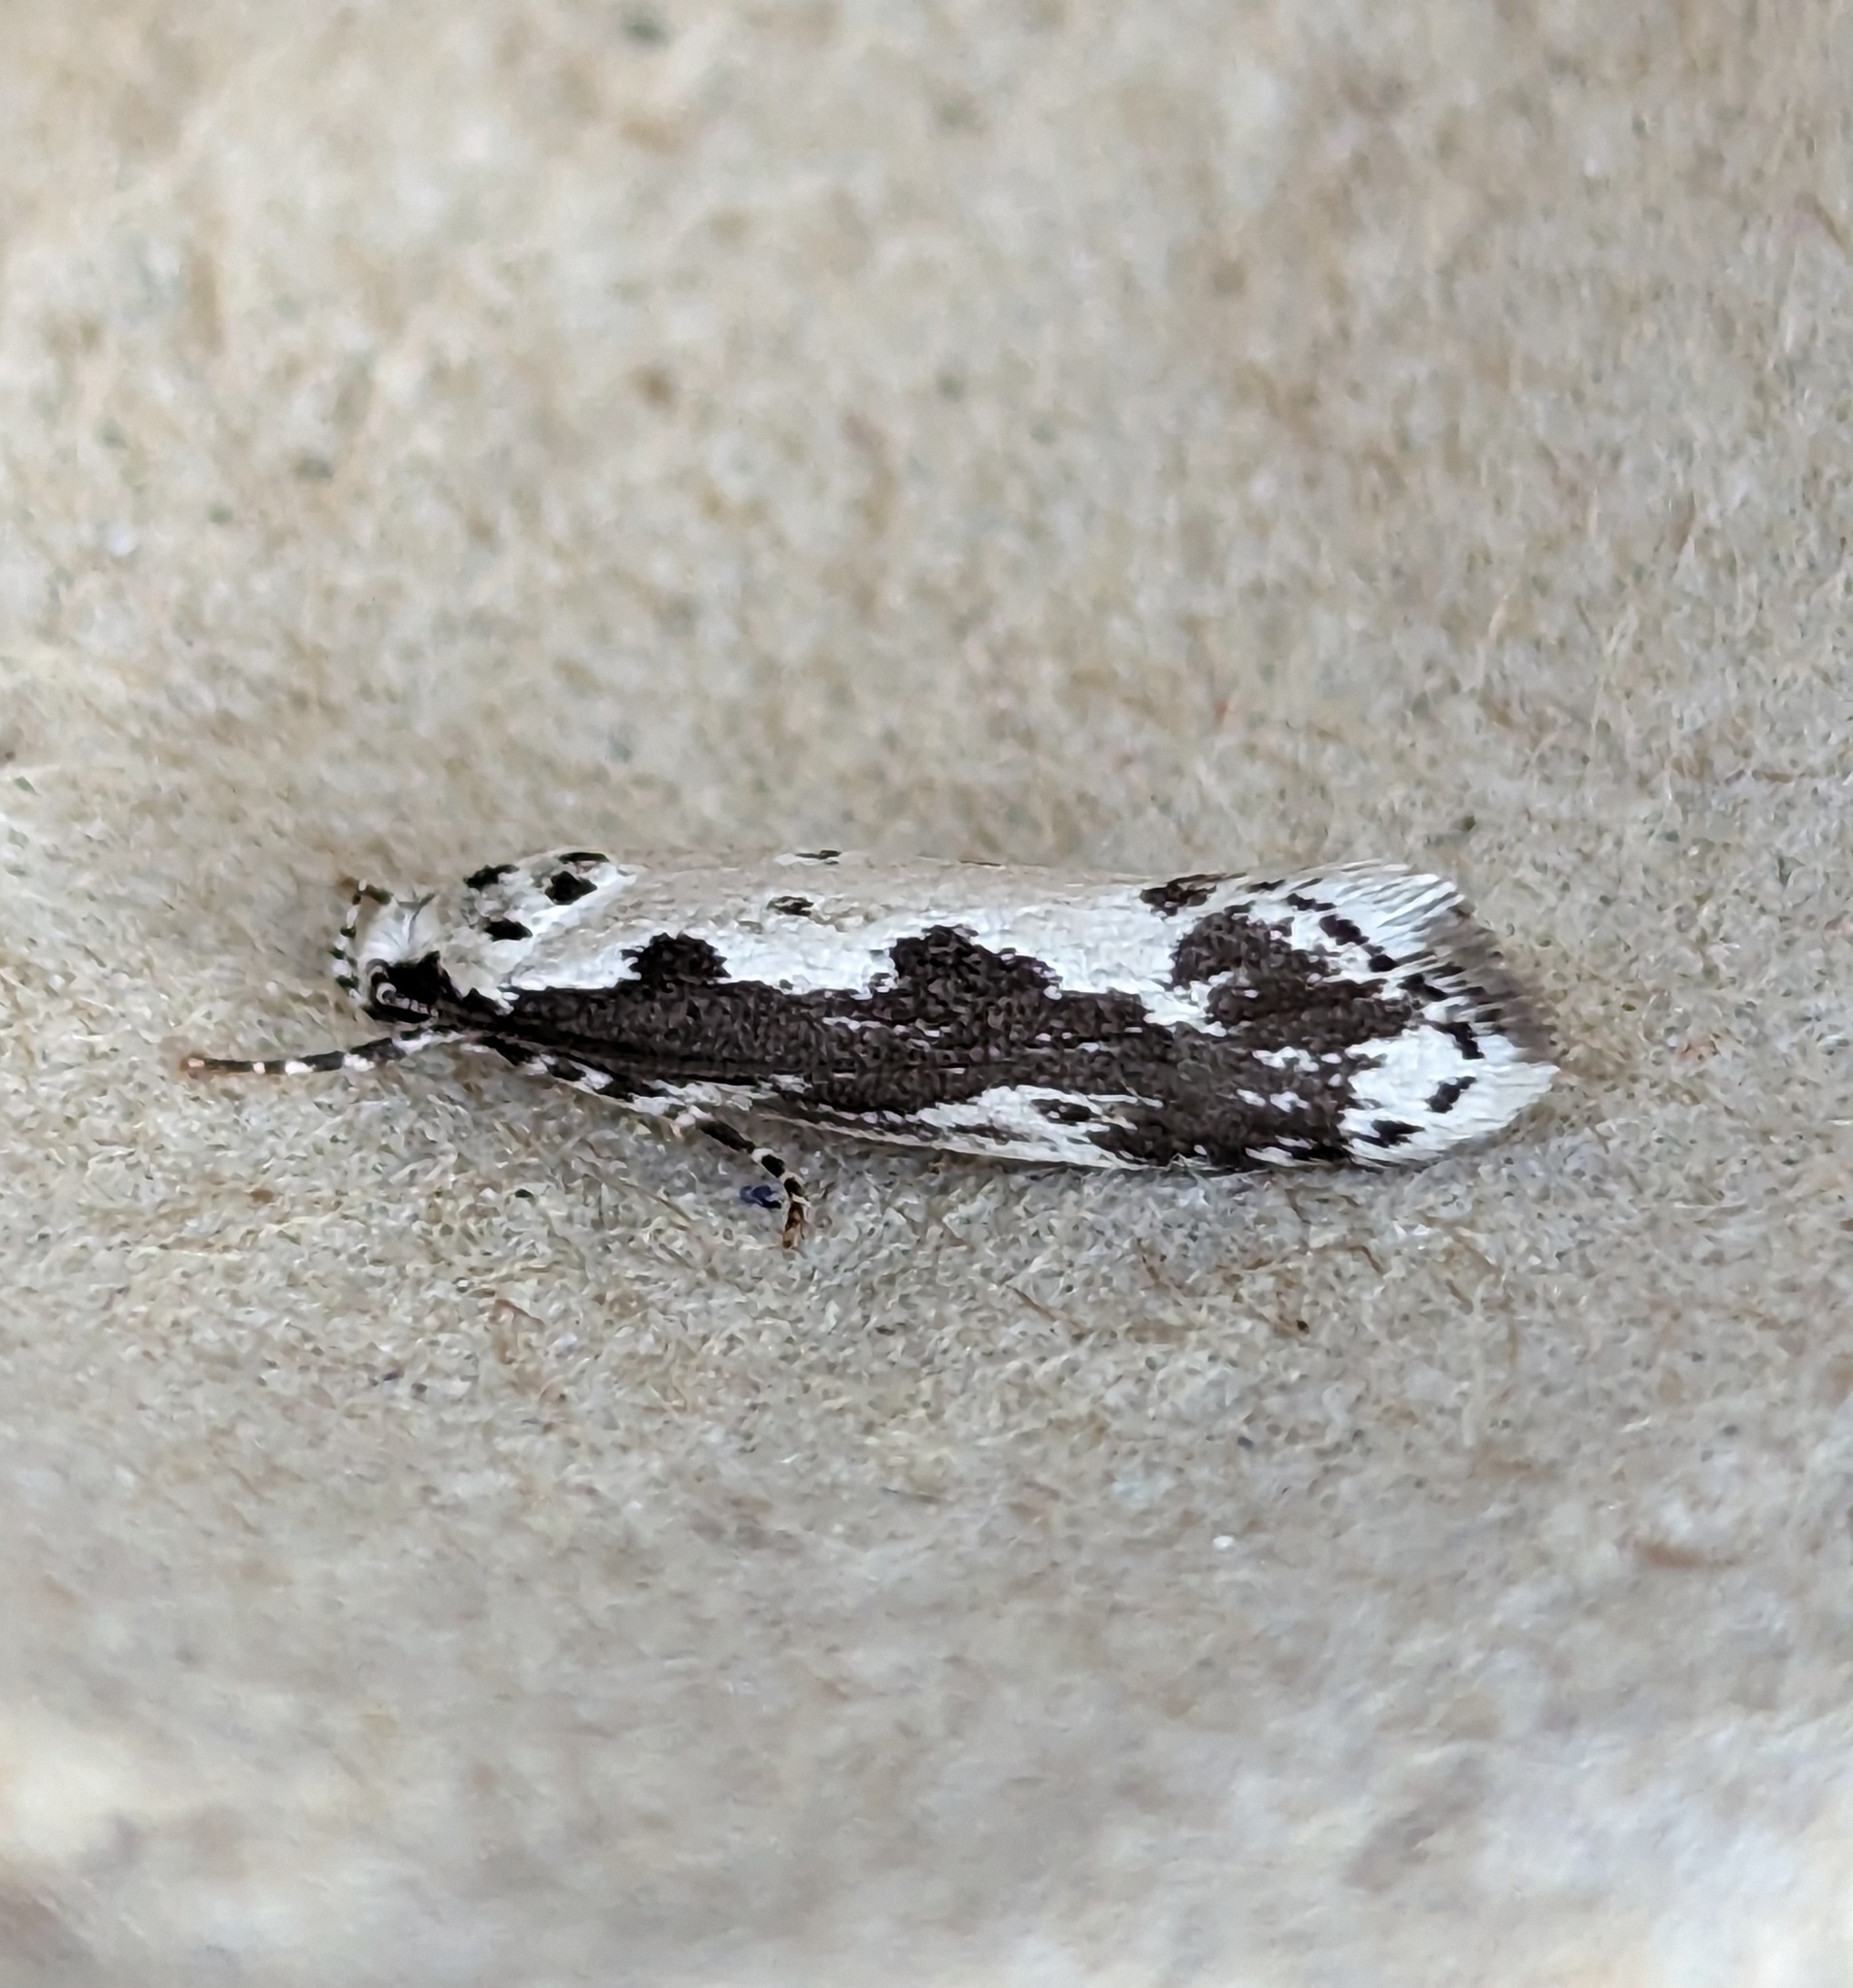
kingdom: Animalia
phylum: Arthropoda
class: Insecta
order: Lepidoptera
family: Ethmiidae
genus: Ethmia
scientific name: Ethmia marmorea
